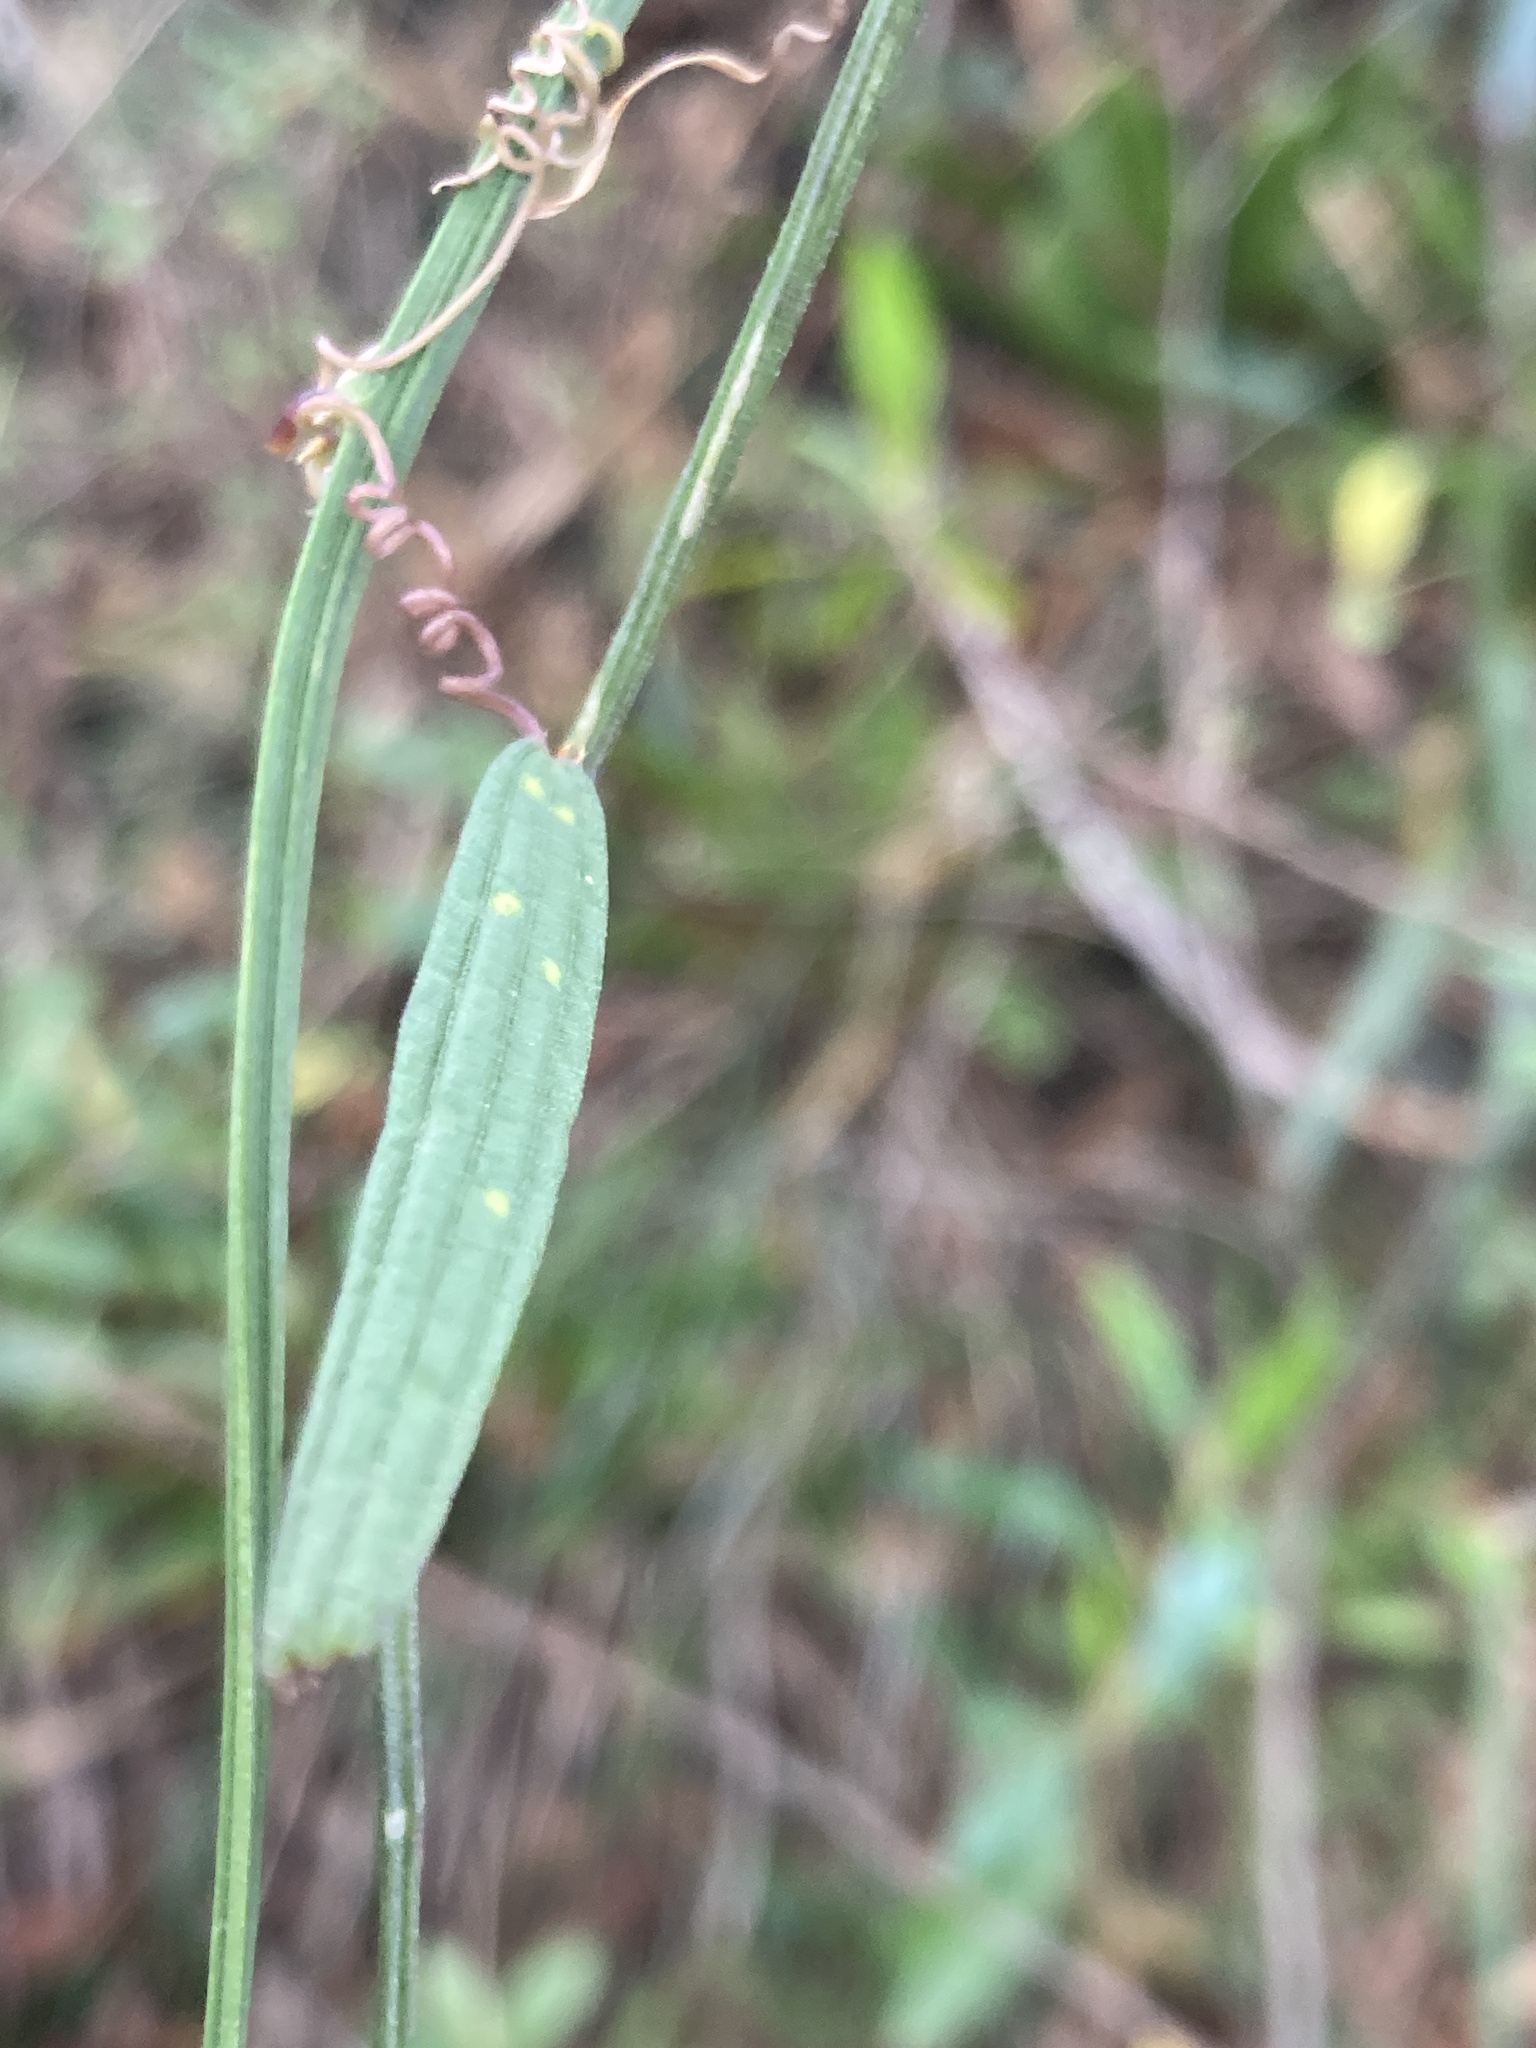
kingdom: Plantae
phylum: Tracheophyta
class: Magnoliopsida
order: Malpighiales
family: Passifloraceae
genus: Passiflora
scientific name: Passiflora hyacinthiflora
